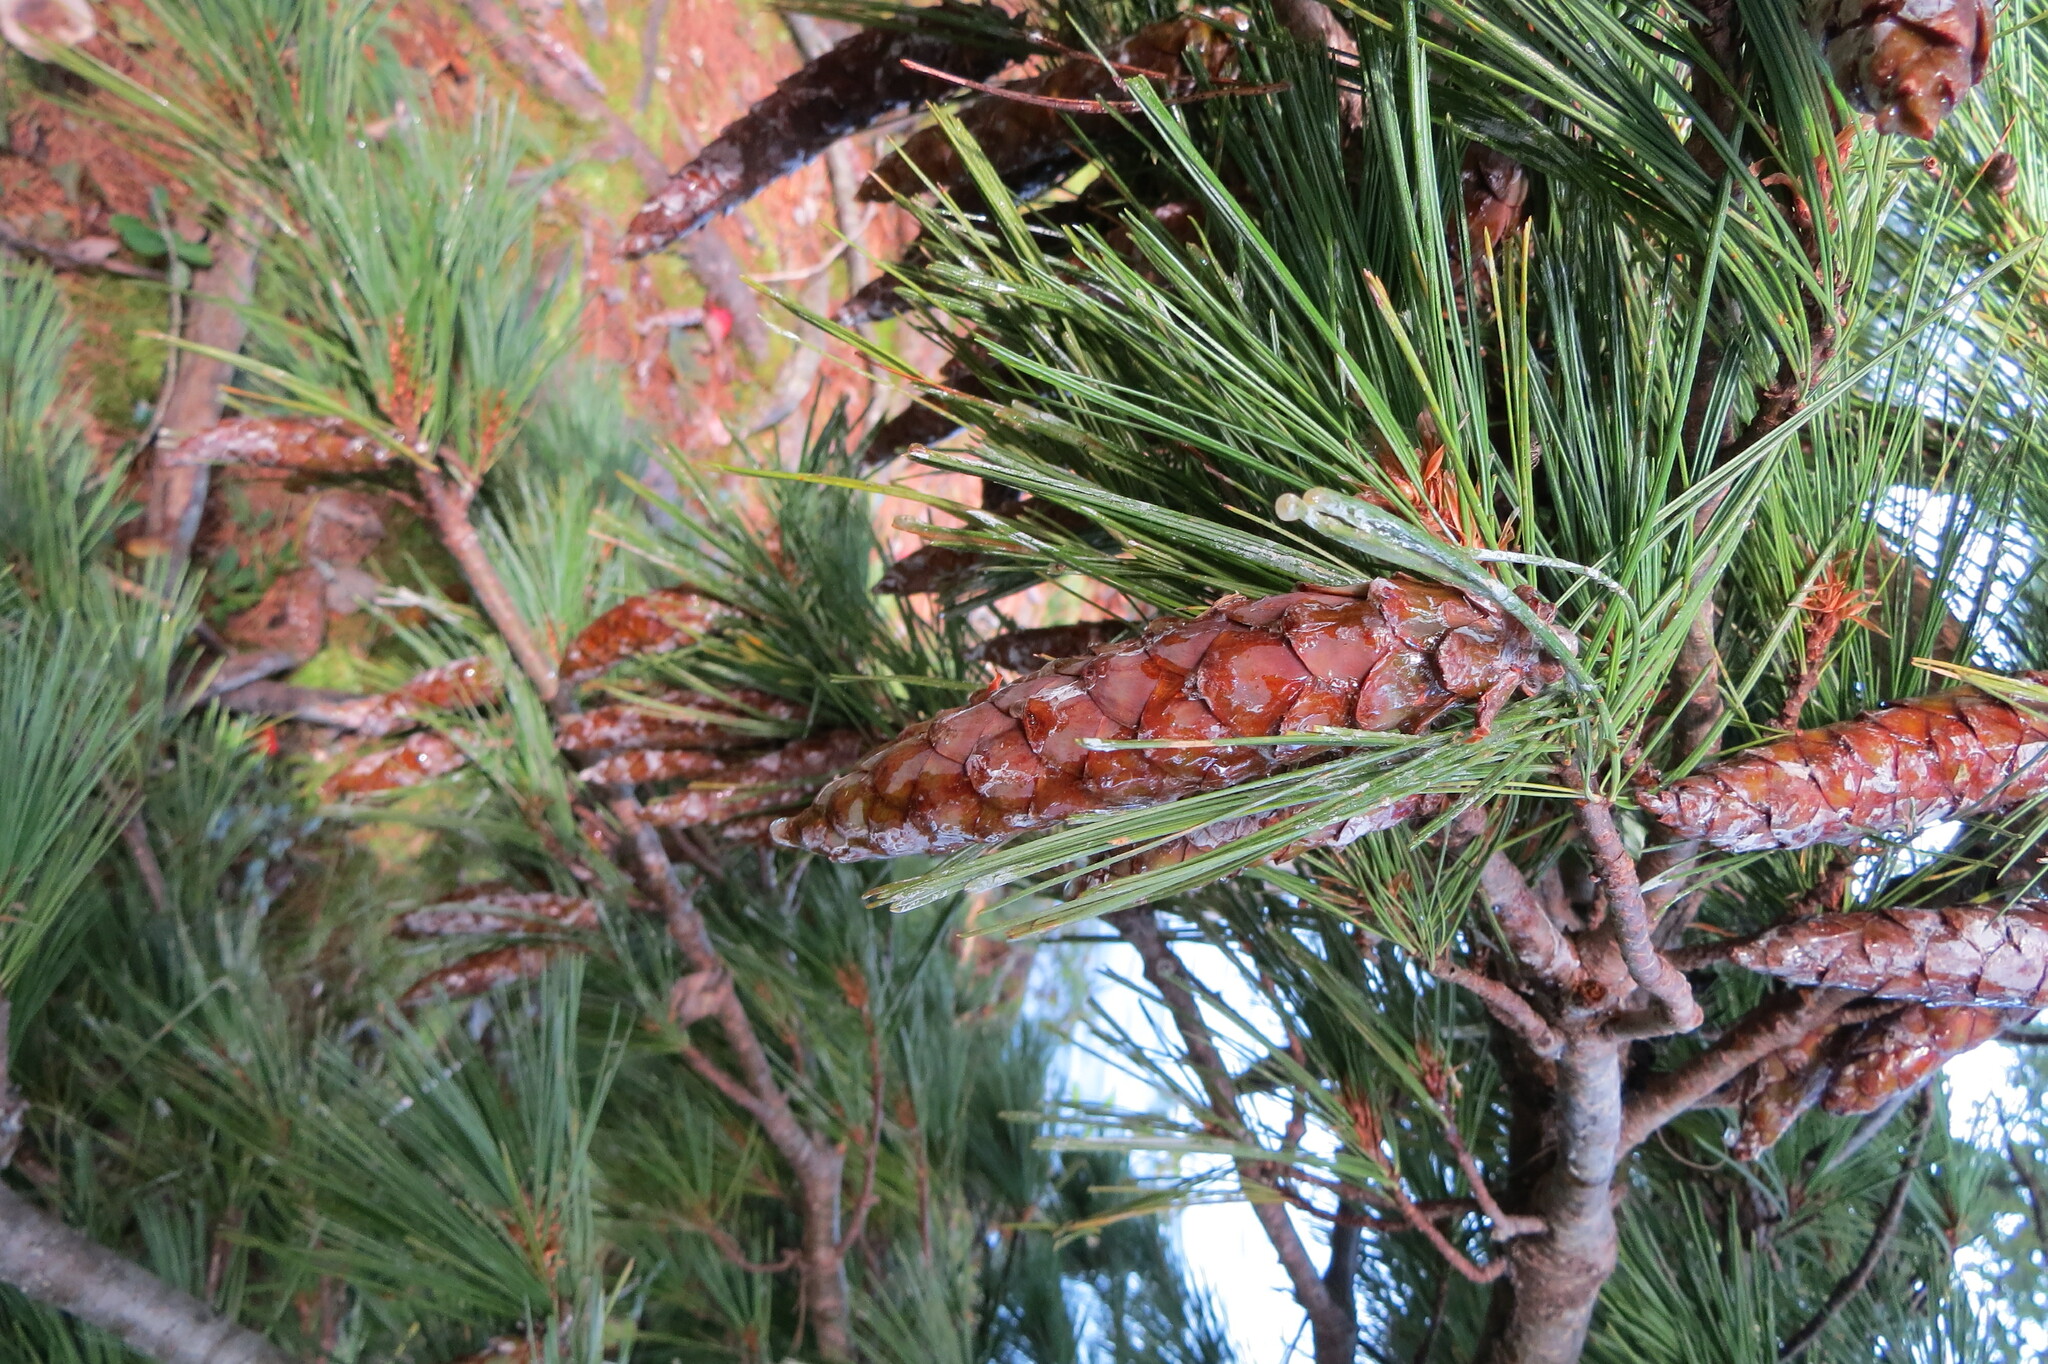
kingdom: Plantae
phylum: Tracheophyta
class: Pinopsida
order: Pinales
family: Pinaceae
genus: Pinus
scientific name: Pinus strobus
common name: Weymouth pine
